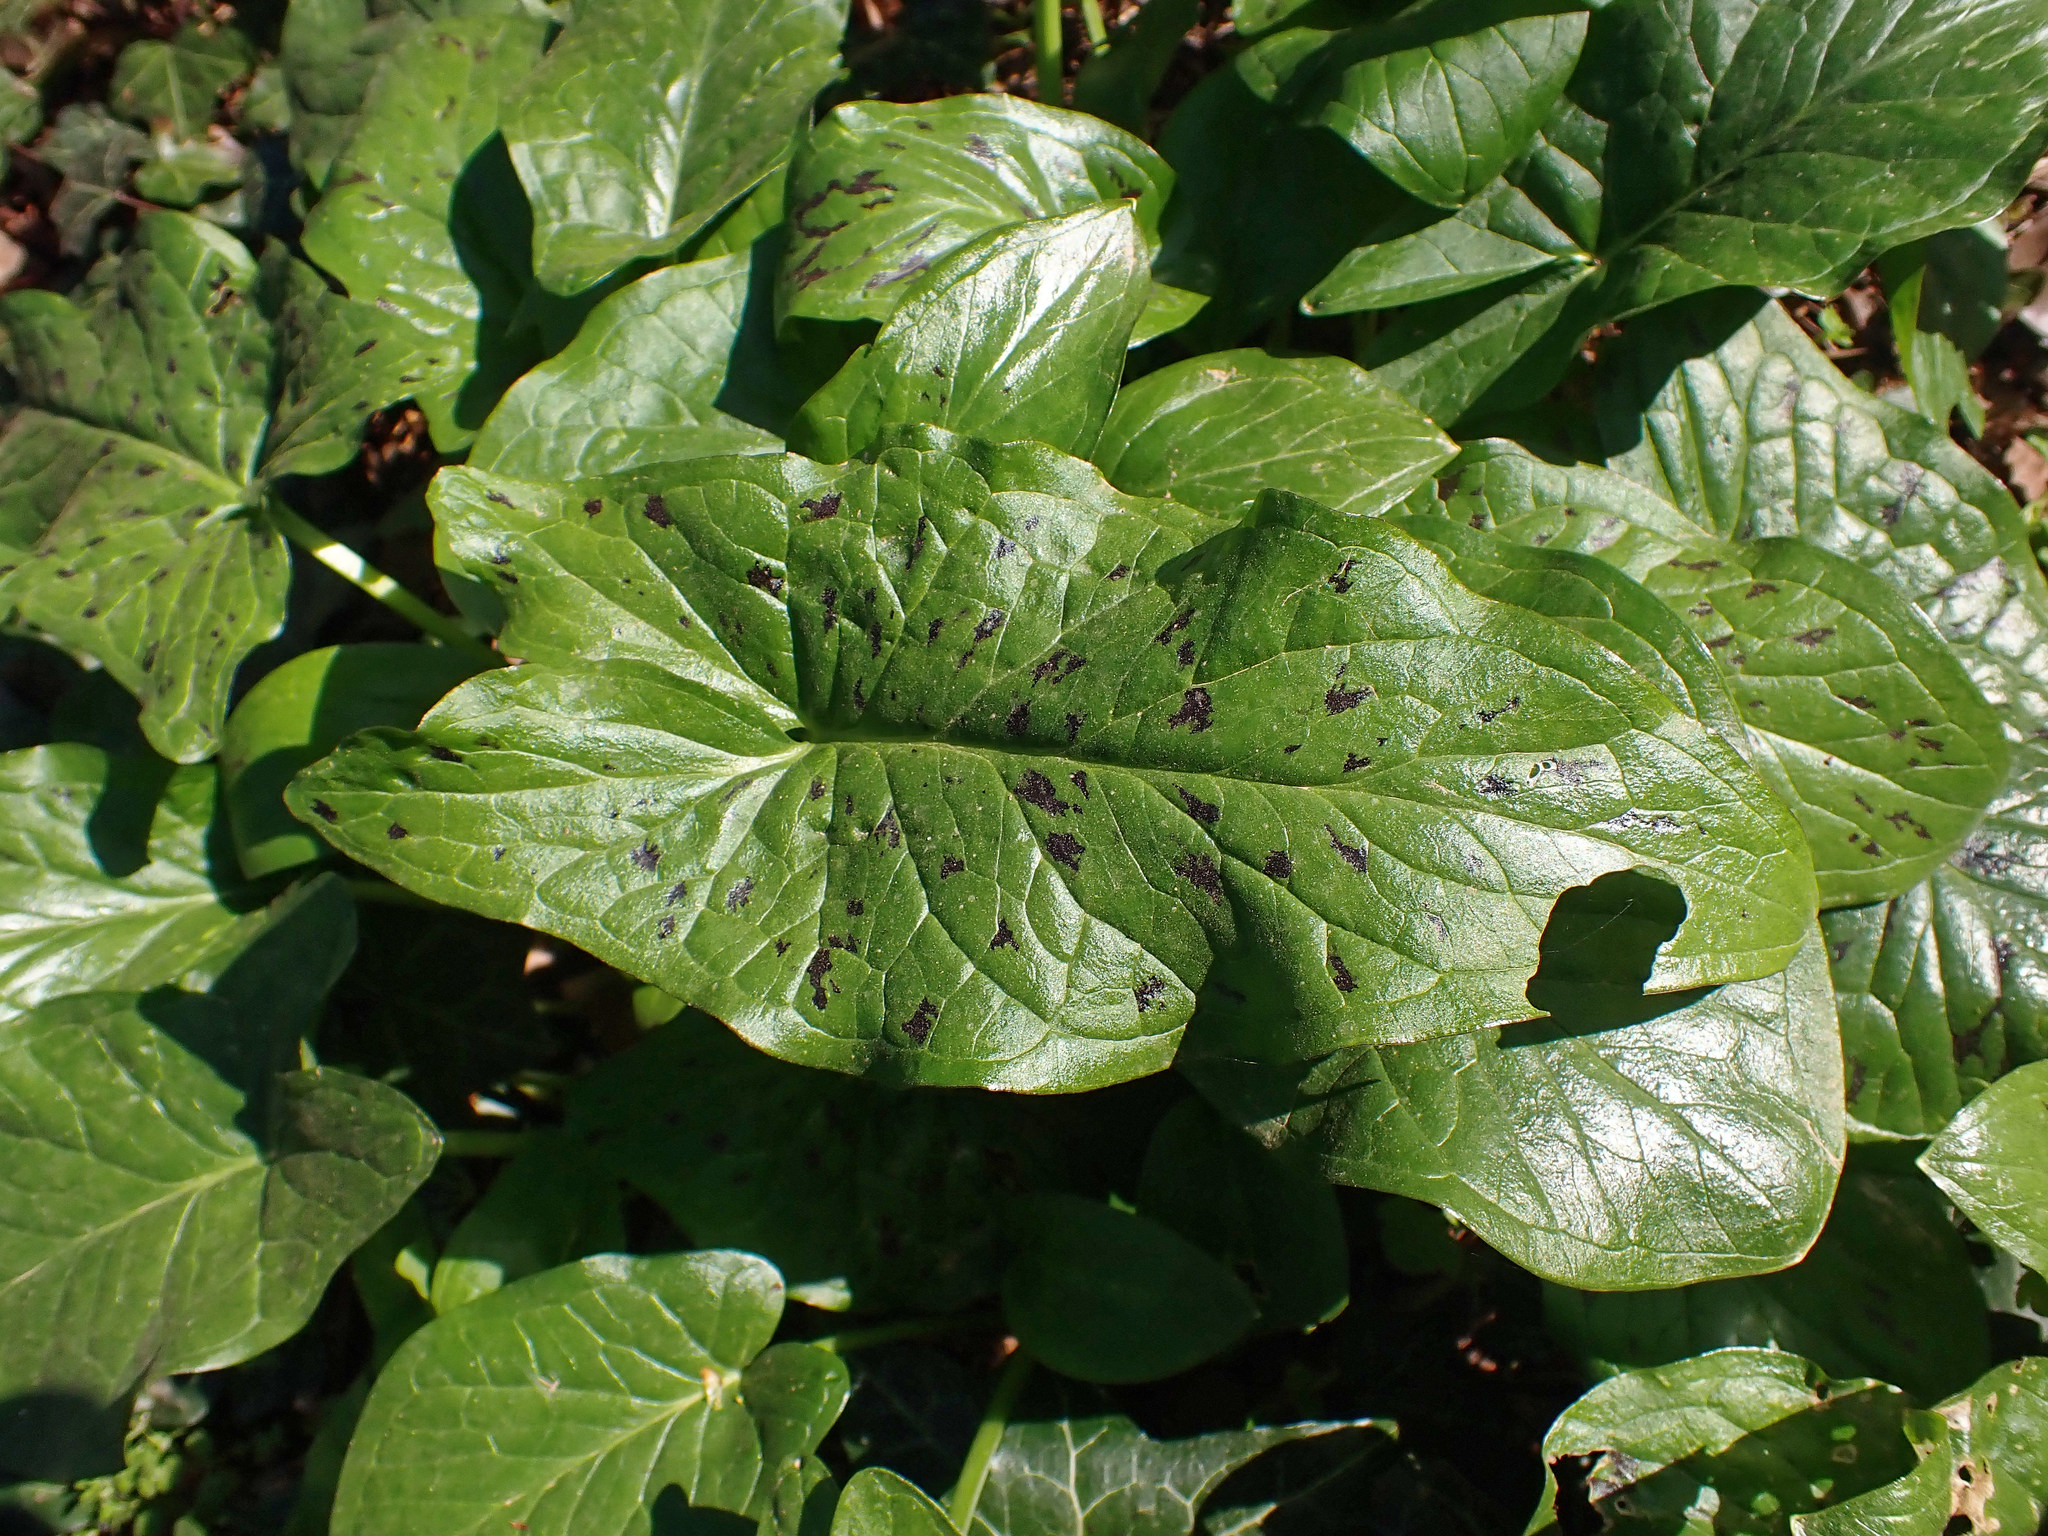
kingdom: Plantae
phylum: Tracheophyta
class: Liliopsida
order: Alismatales
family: Araceae
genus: Arum
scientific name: Arum maculatum
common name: Lords-and-ladies
